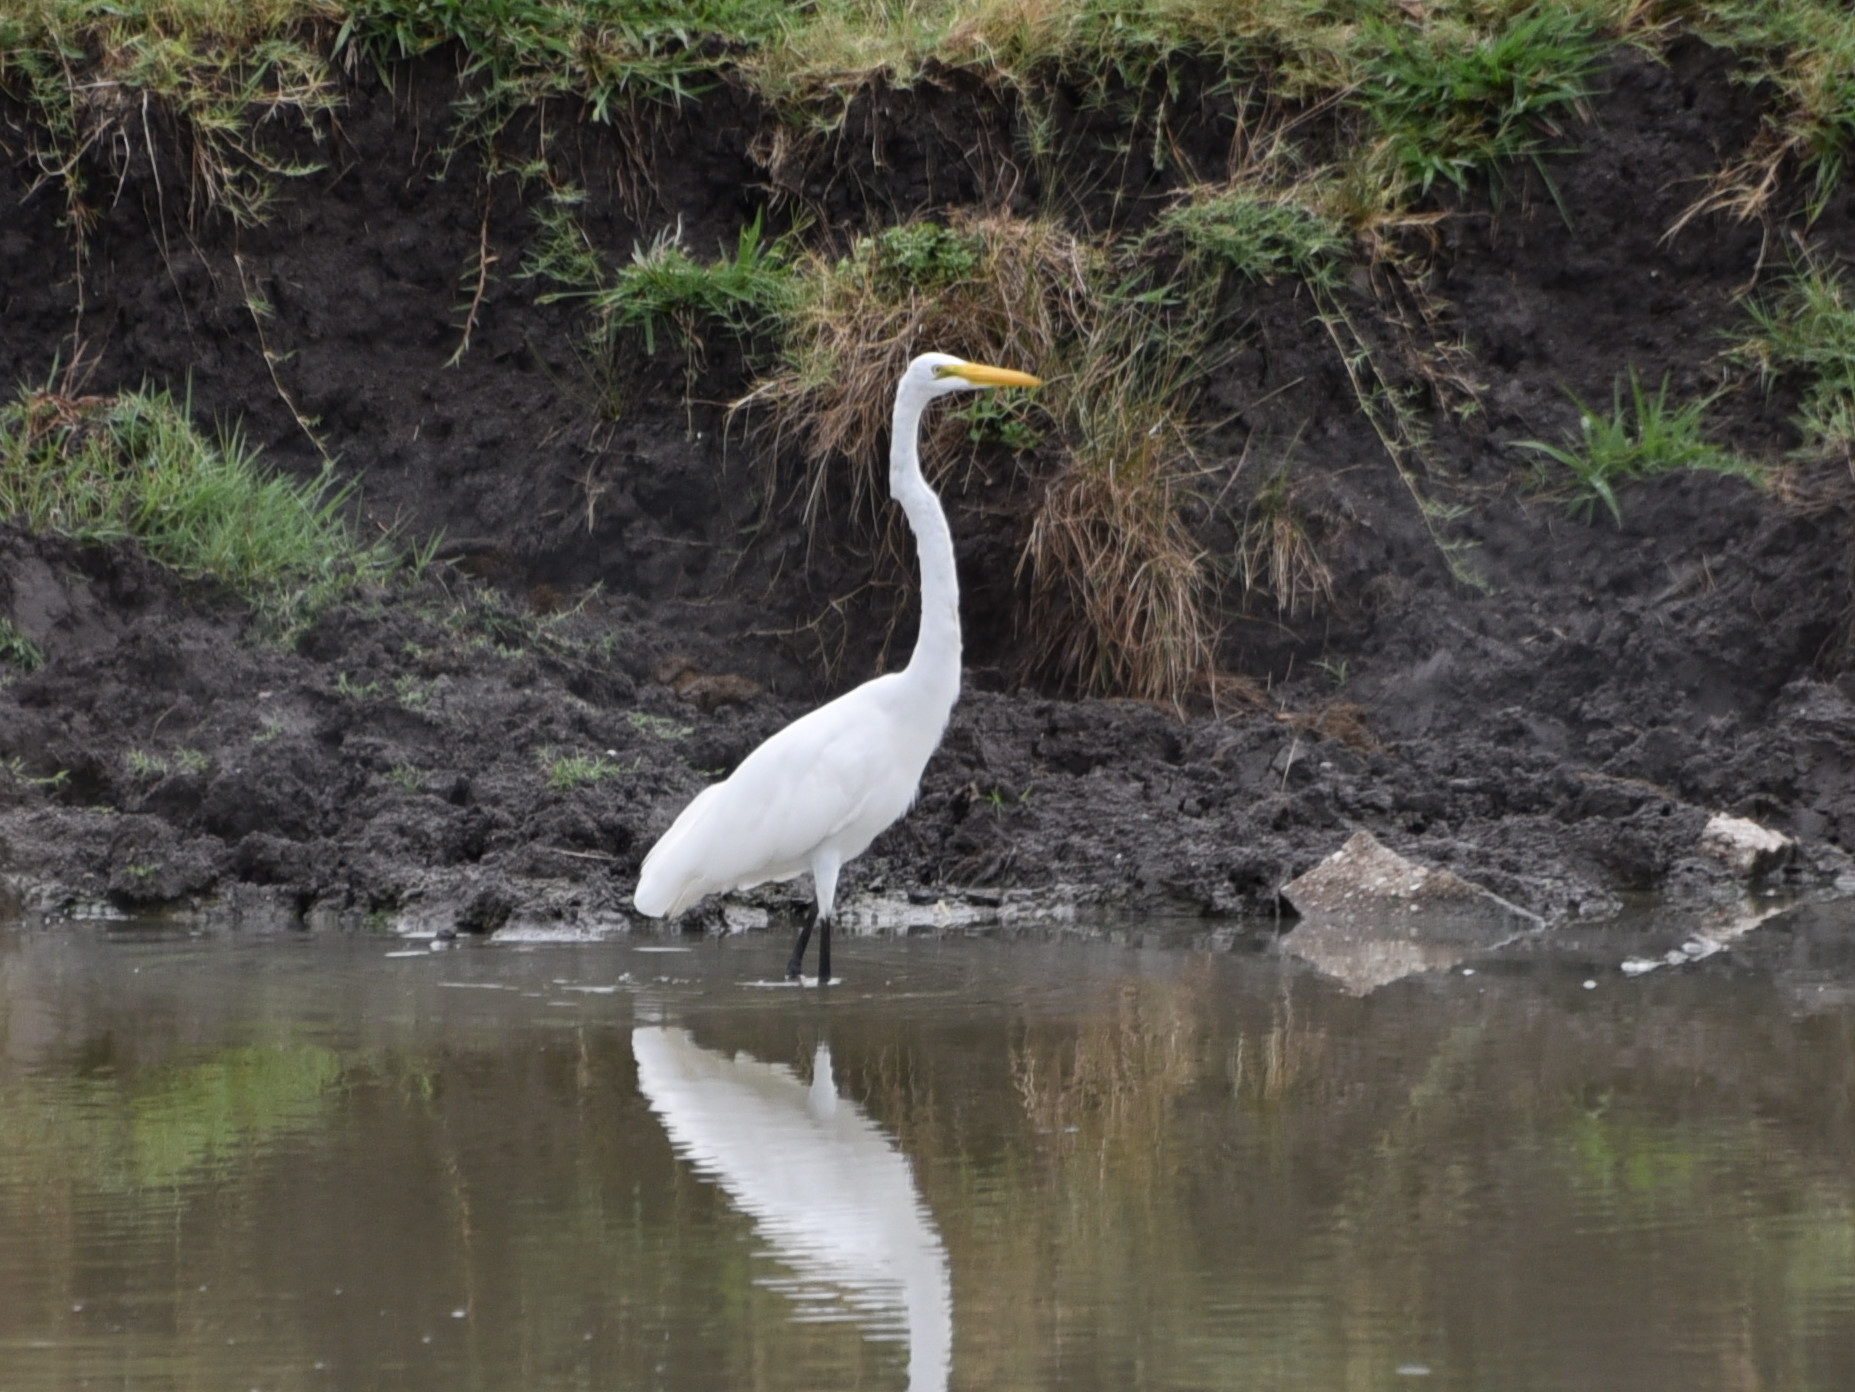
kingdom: Animalia
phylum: Chordata
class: Aves
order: Pelecaniformes
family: Ardeidae
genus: Ardea
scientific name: Ardea alba
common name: Great egret
